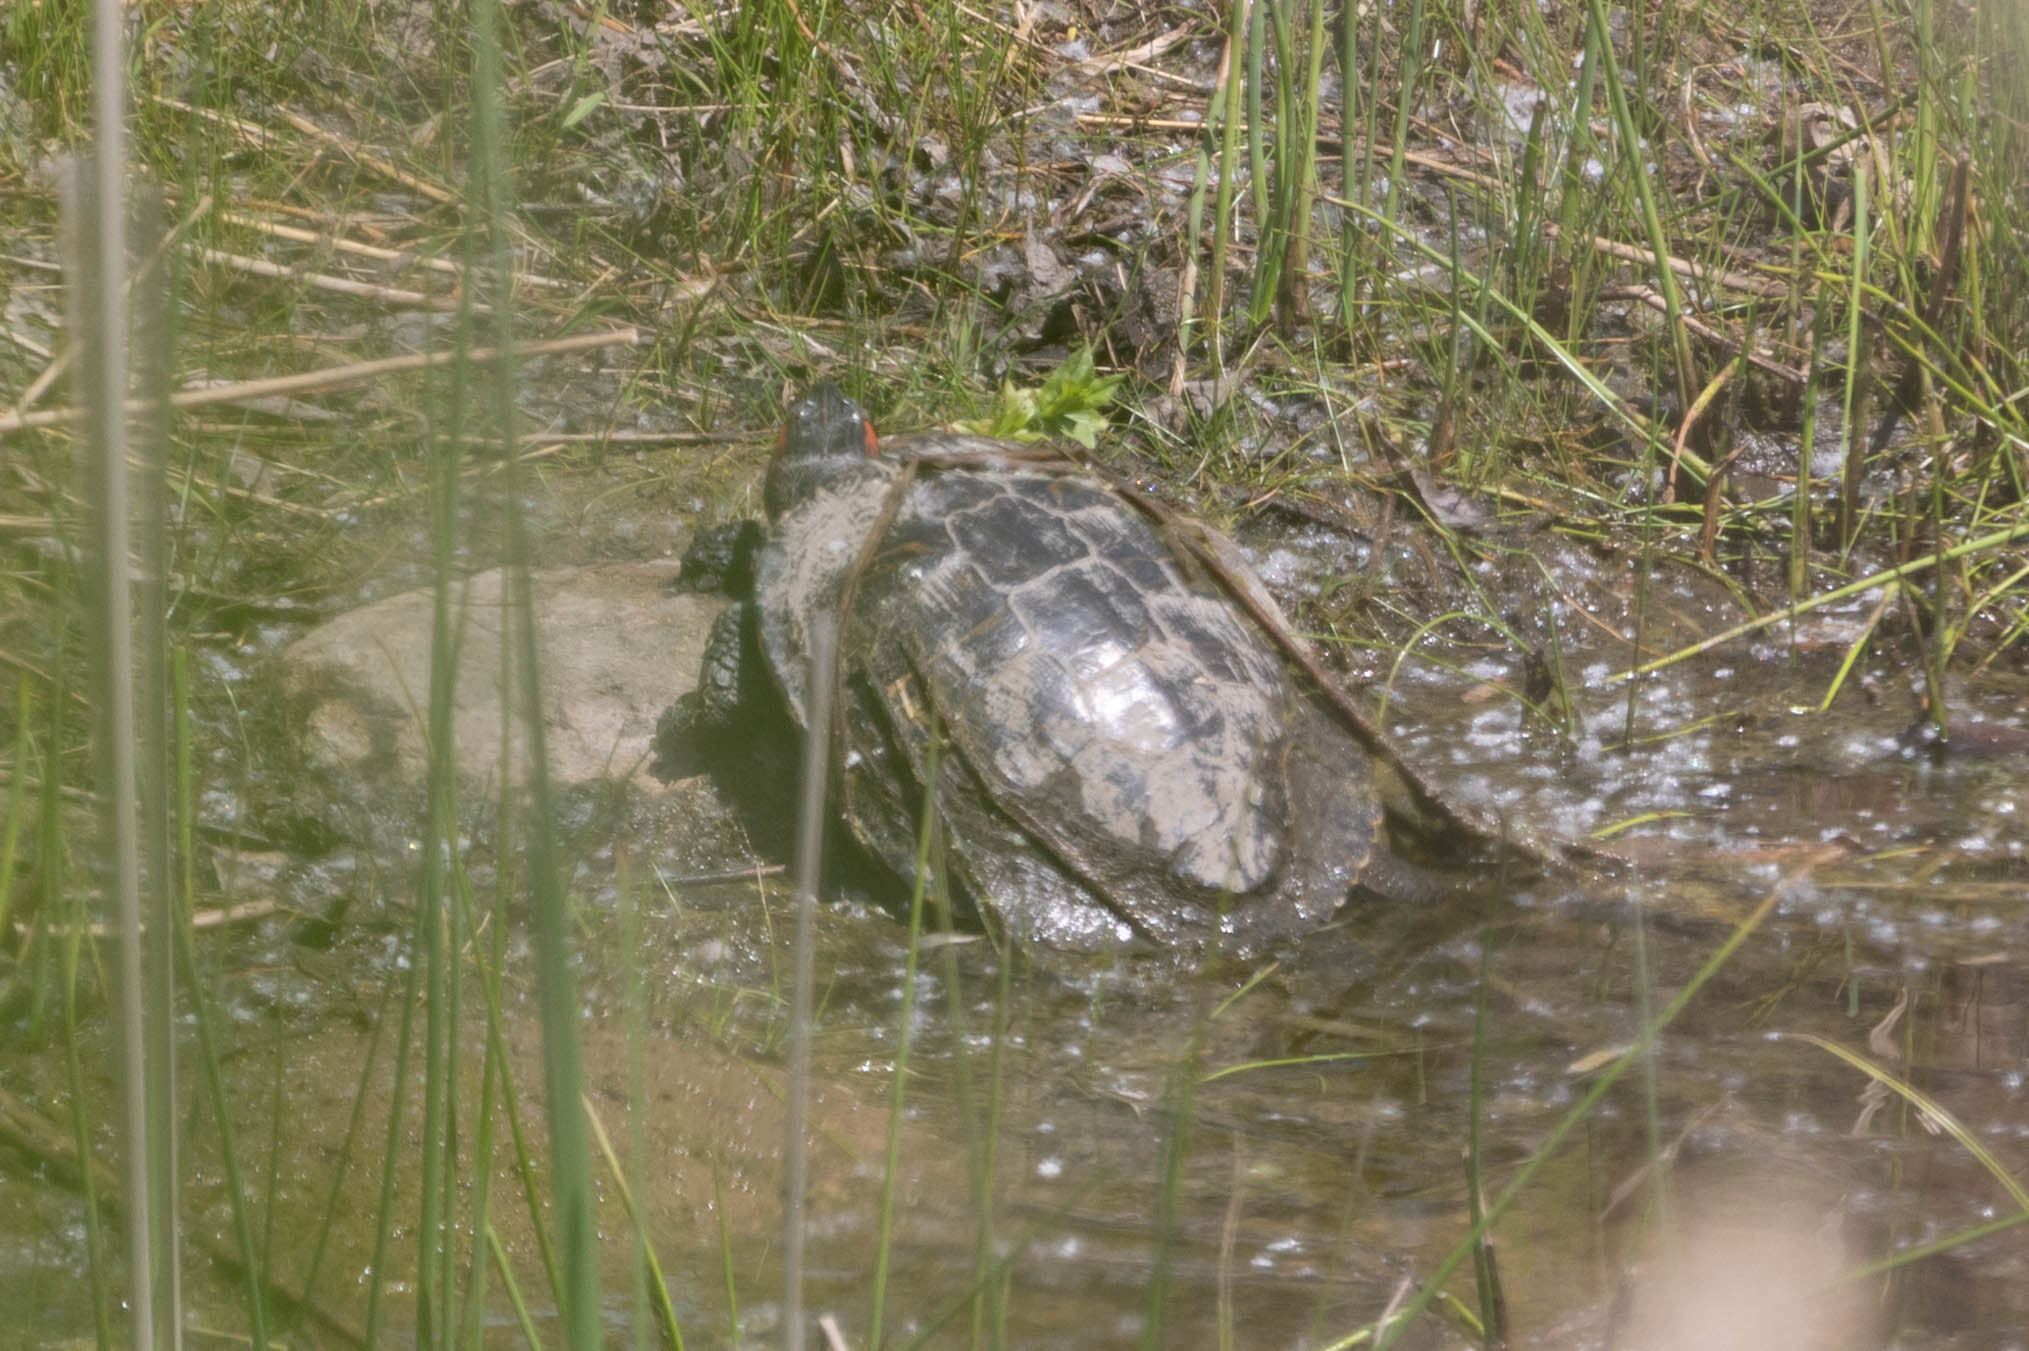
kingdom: Animalia
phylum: Chordata
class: Testudines
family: Emydidae
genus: Trachemys
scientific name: Trachemys scripta
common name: Slider
